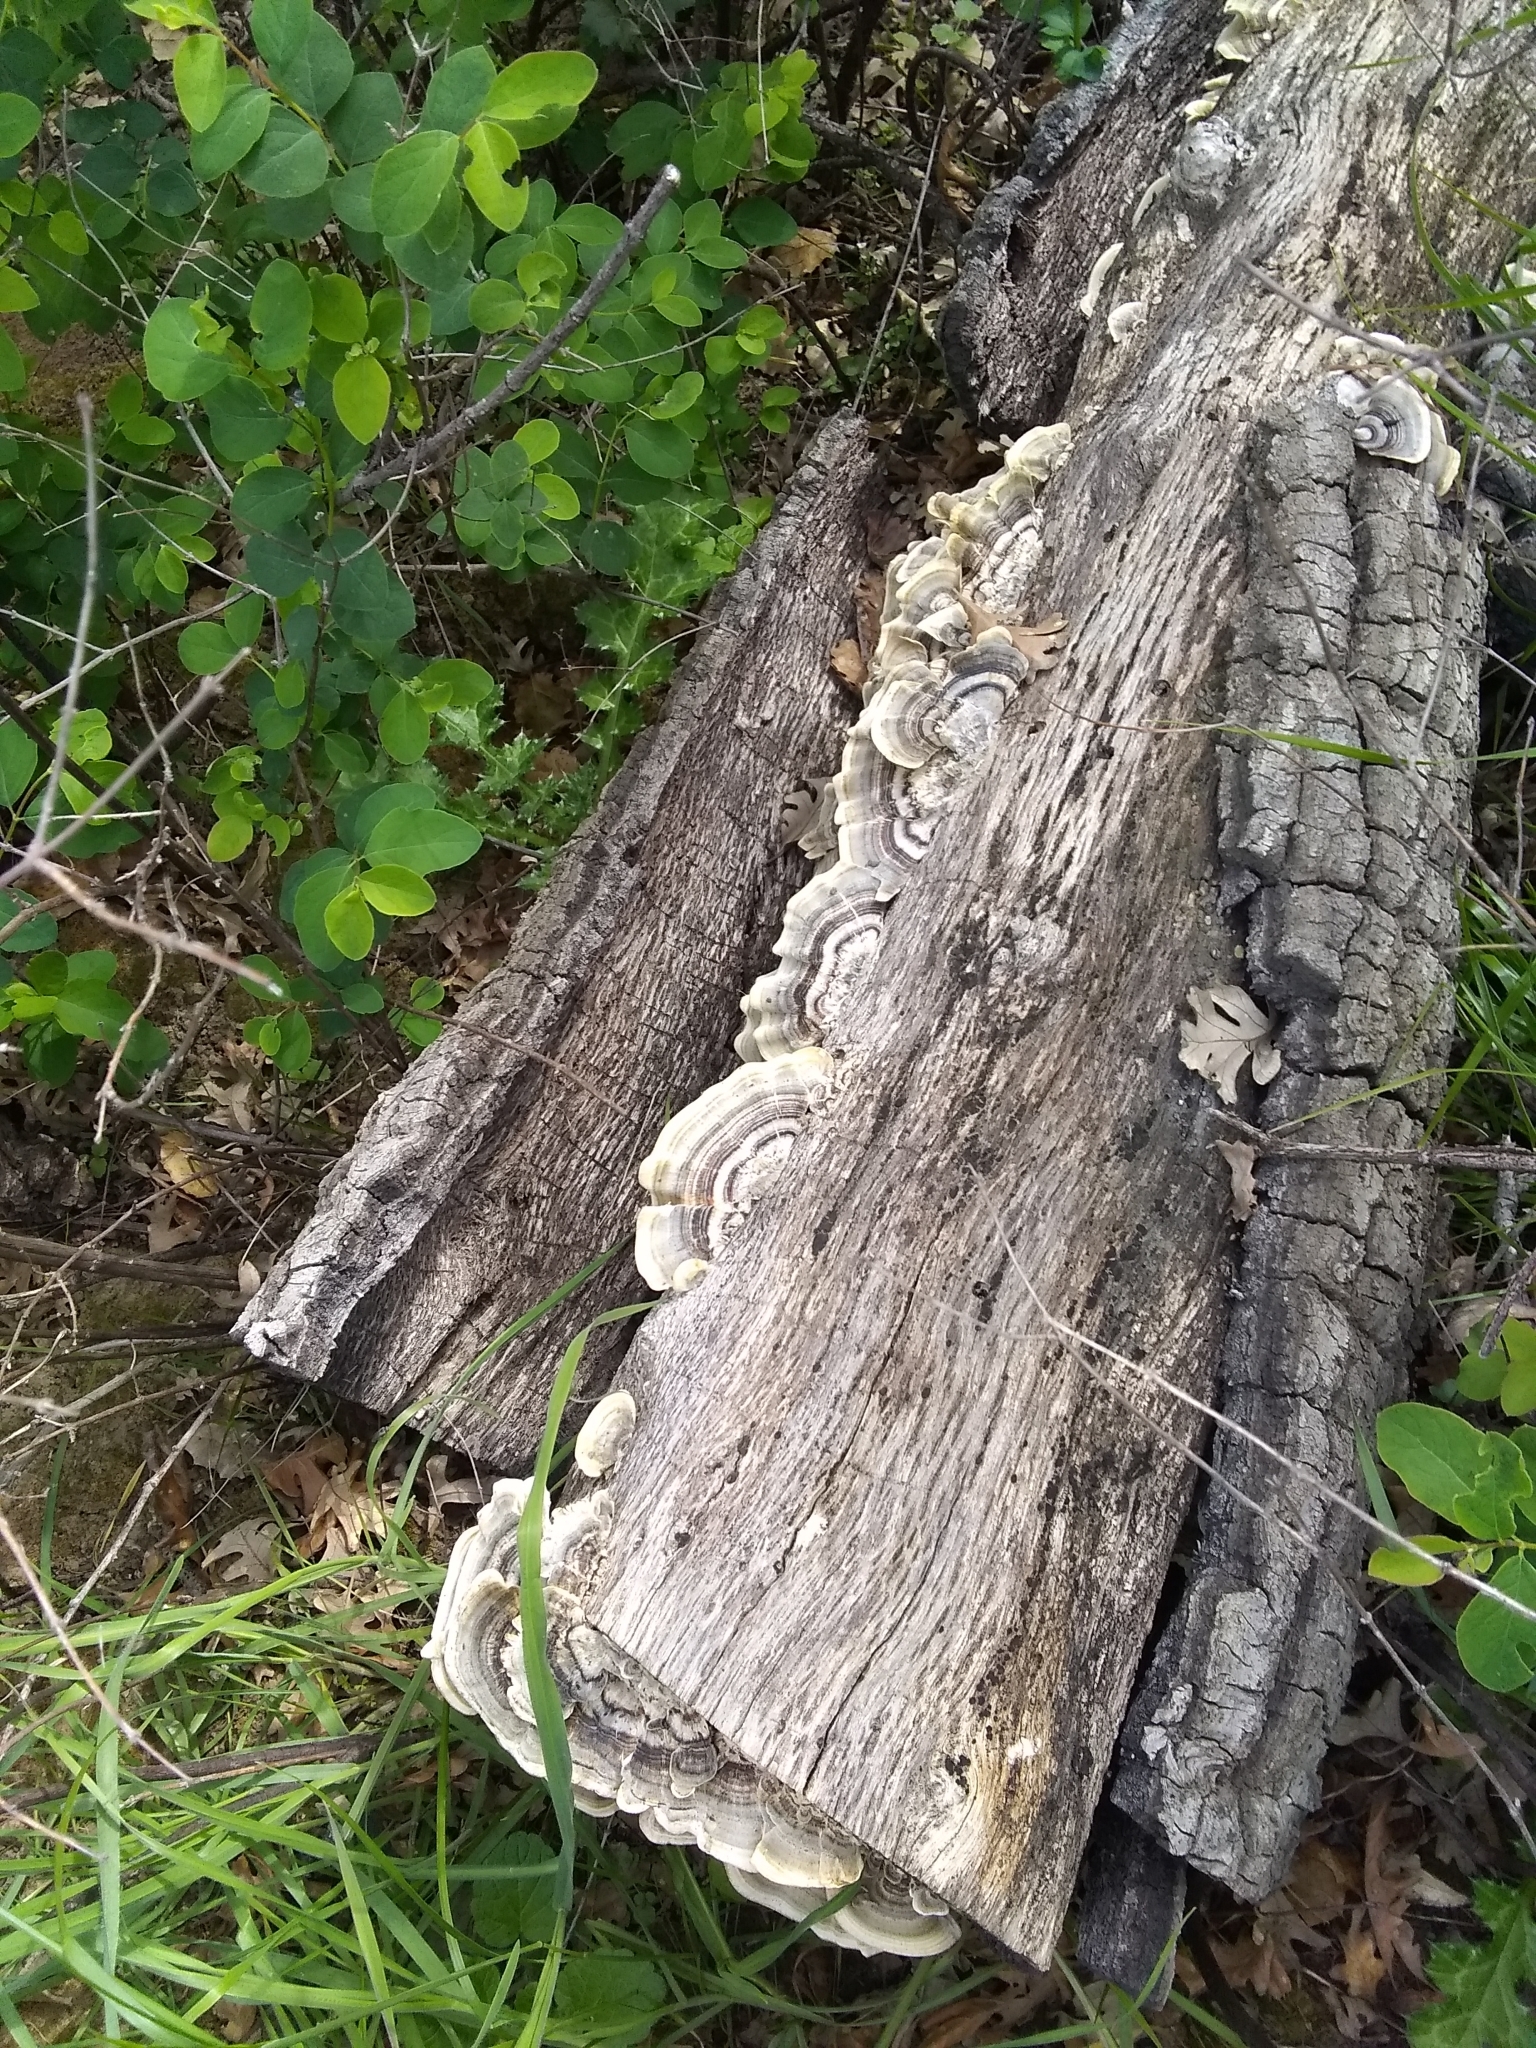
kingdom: Fungi
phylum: Basidiomycota
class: Agaricomycetes
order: Polyporales
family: Polyporaceae
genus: Trametes
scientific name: Trametes versicolor
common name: Turkeytail
